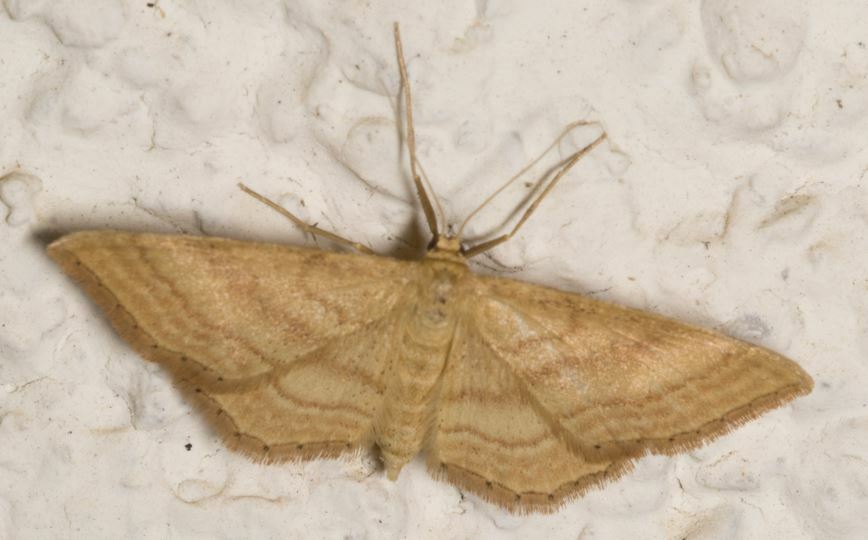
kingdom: Animalia
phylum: Arthropoda
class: Insecta
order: Lepidoptera
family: Geometridae
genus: Idaea
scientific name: Idaea ochrata
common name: Bright wave
